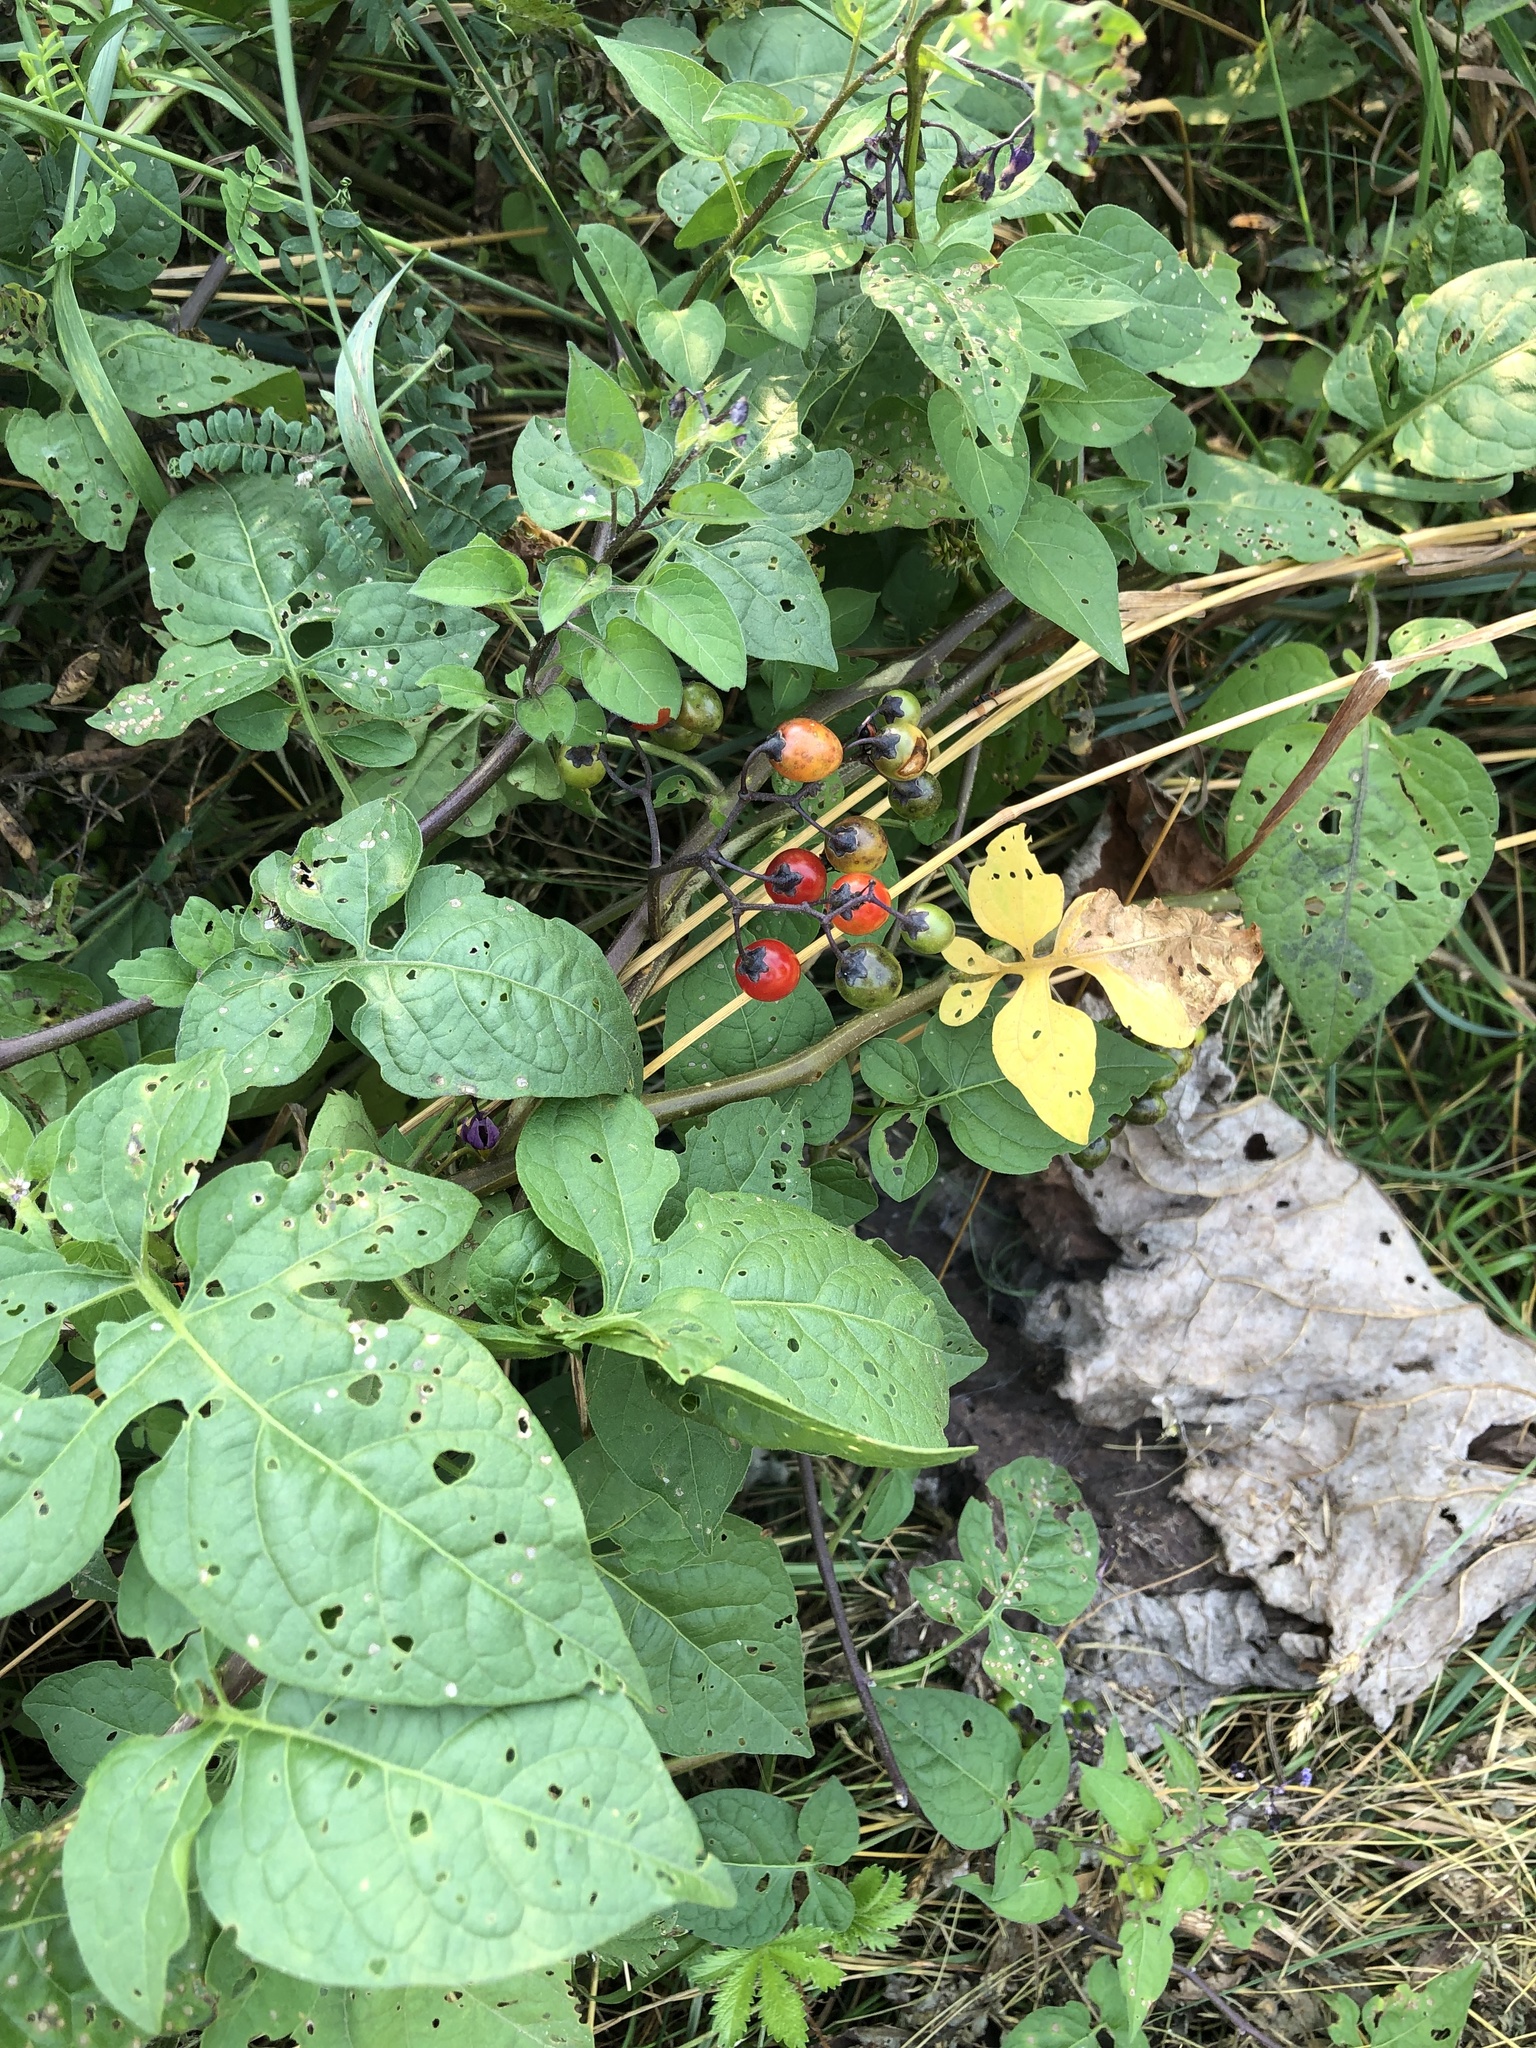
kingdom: Plantae
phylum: Tracheophyta
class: Magnoliopsida
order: Solanales
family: Solanaceae
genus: Solanum
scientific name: Solanum dulcamara
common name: Climbing nightshade
